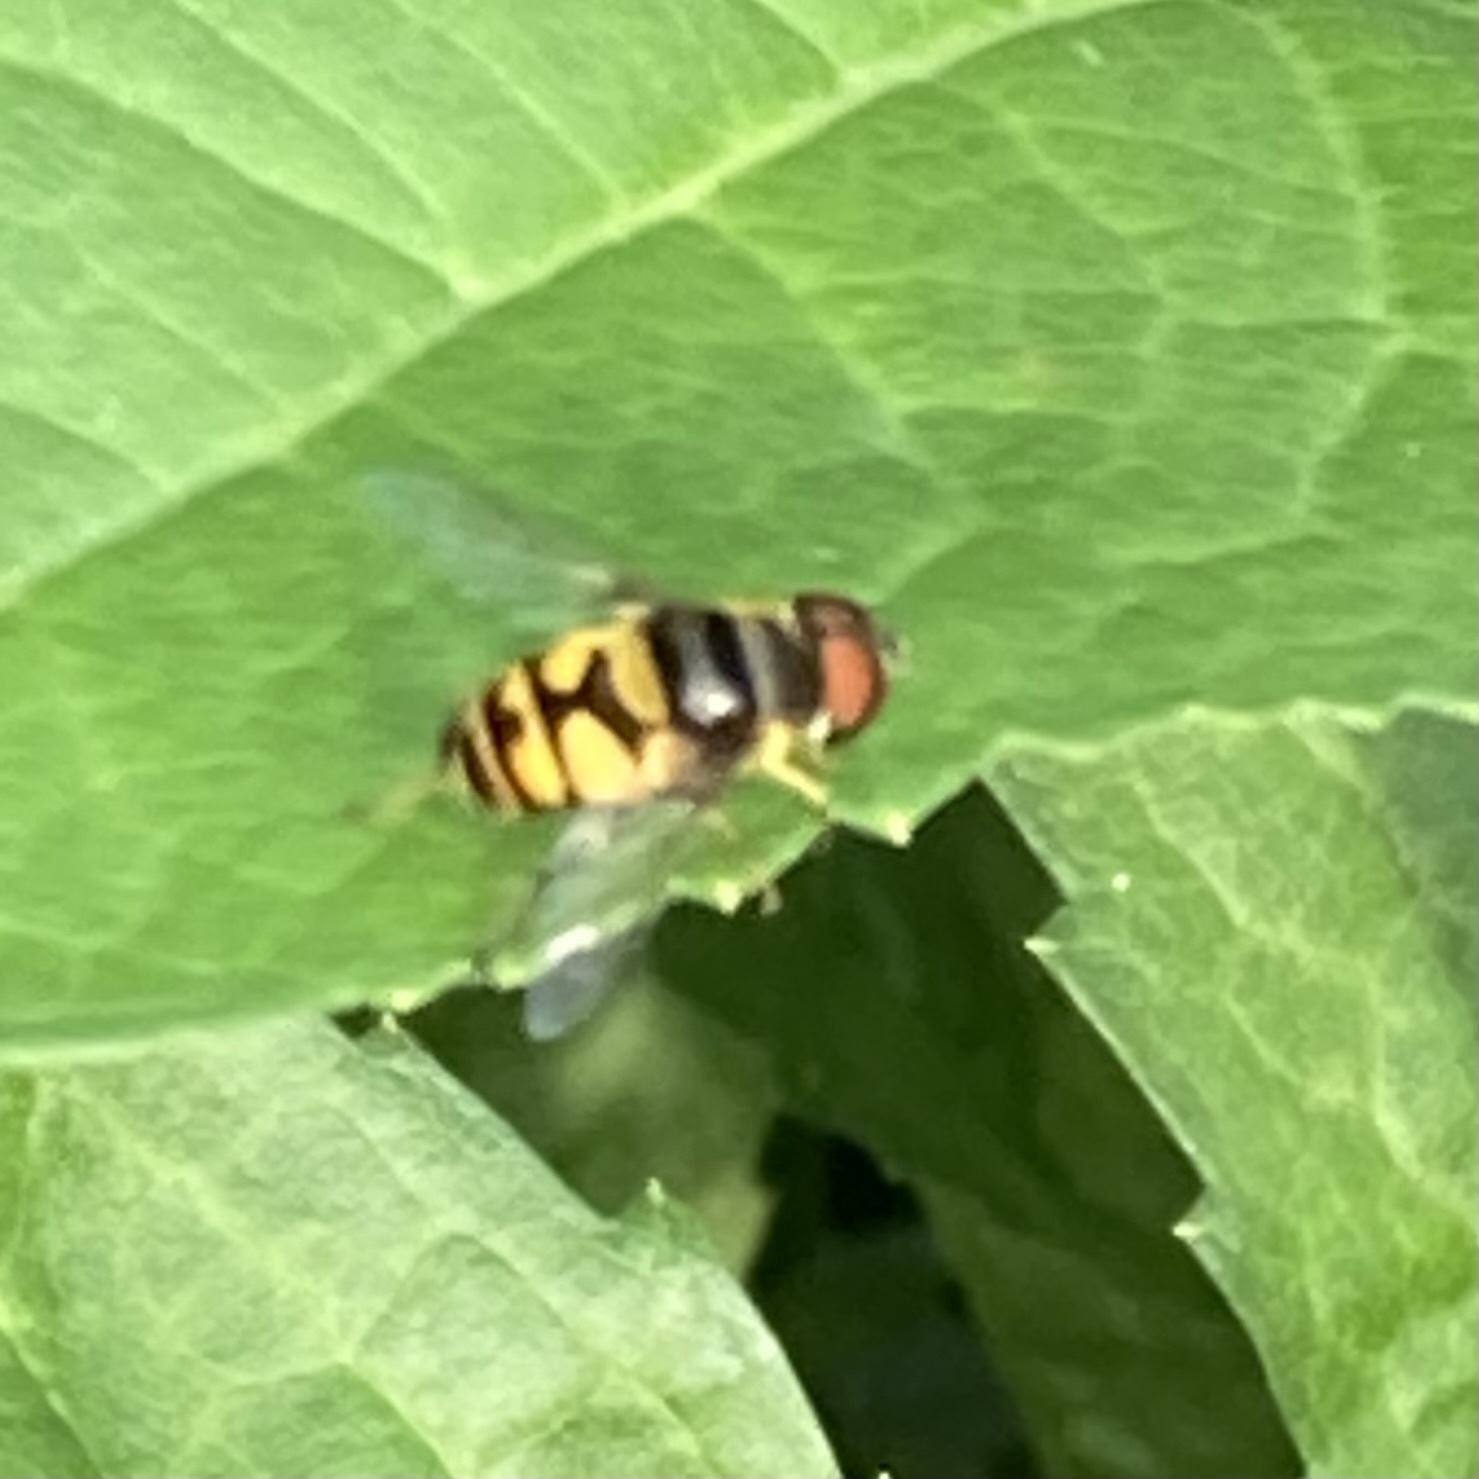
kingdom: Animalia
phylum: Arthropoda
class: Insecta
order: Diptera
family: Syrphidae
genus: Eristalis
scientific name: Eristalis transversa
